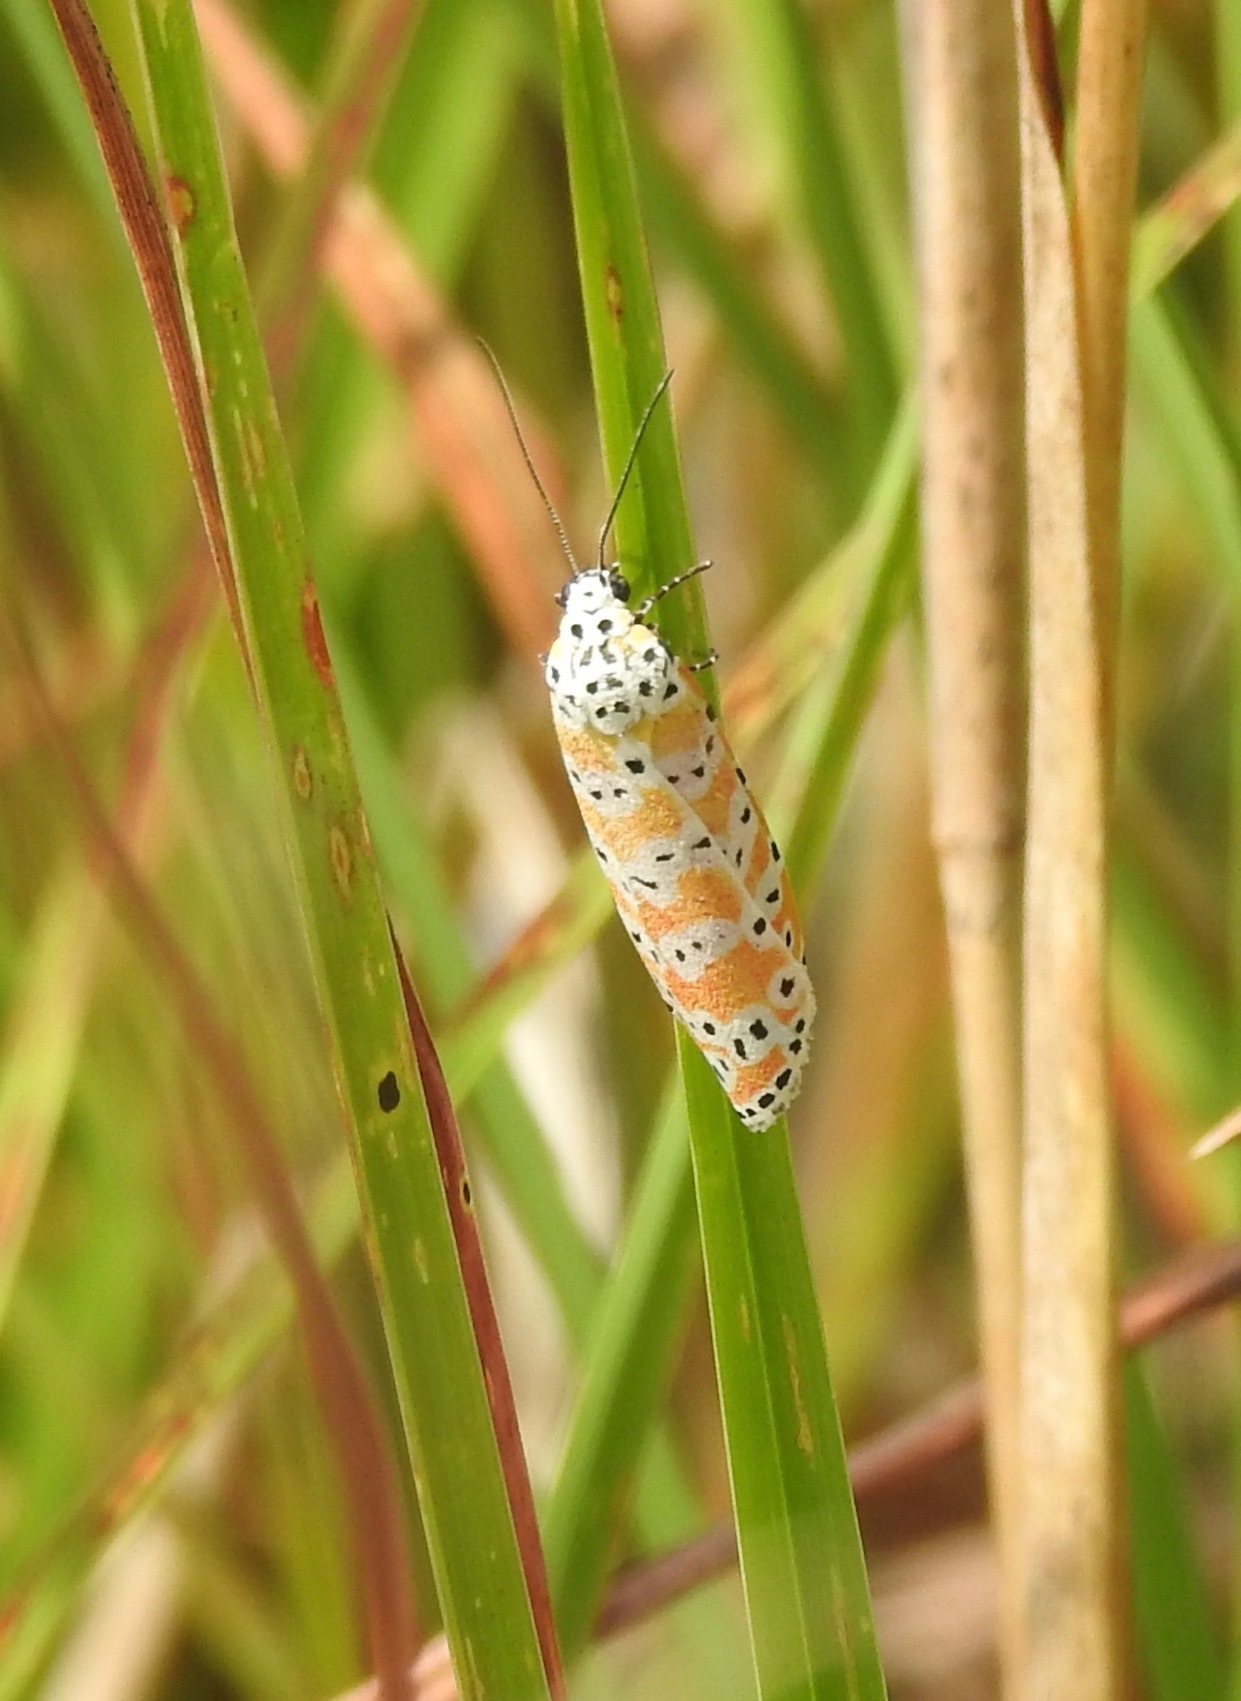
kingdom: Animalia
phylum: Arthropoda
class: Insecta
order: Lepidoptera
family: Erebidae
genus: Utetheisa
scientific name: Utetheisa ornatrix
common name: Beautiful utetheisa
